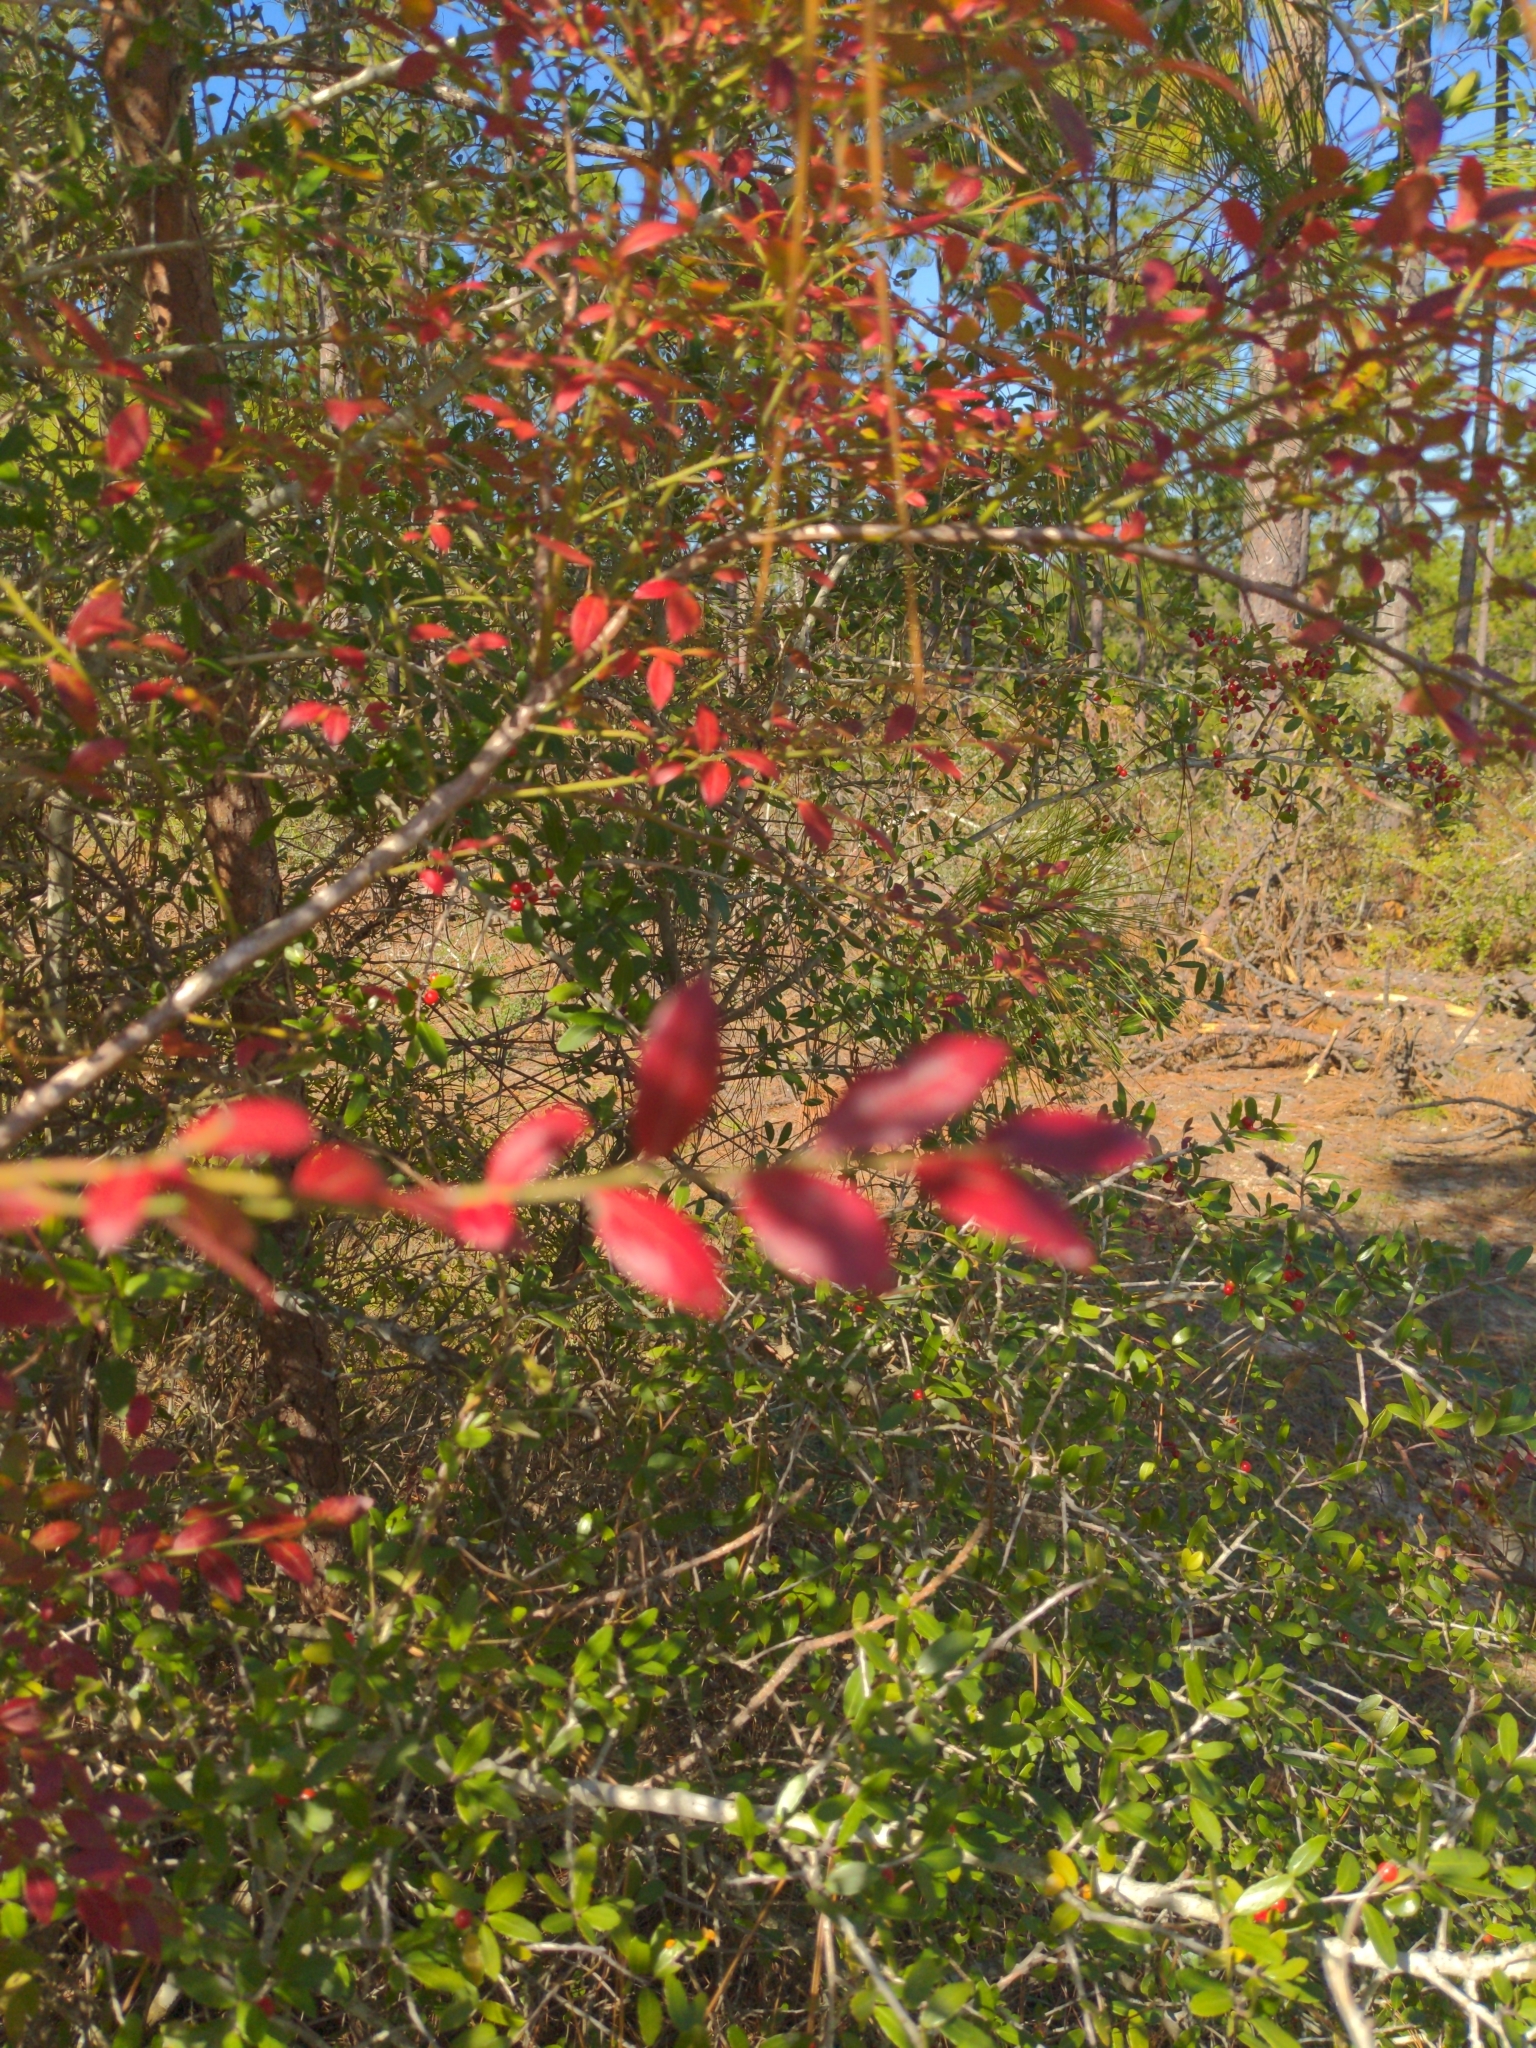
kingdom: Plantae
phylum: Tracheophyta
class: Magnoliopsida
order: Aquifoliales
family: Aquifoliaceae
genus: Ilex
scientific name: Ilex vomitoria
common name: Yaupon holly
